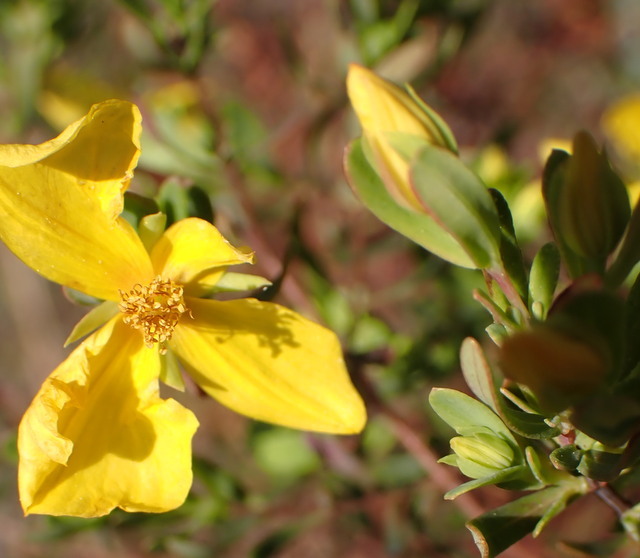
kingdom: Plantae
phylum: Tracheophyta
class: Magnoliopsida
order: Malpighiales
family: Hypericaceae
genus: Hypericum
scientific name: Hypericum microsepalum
